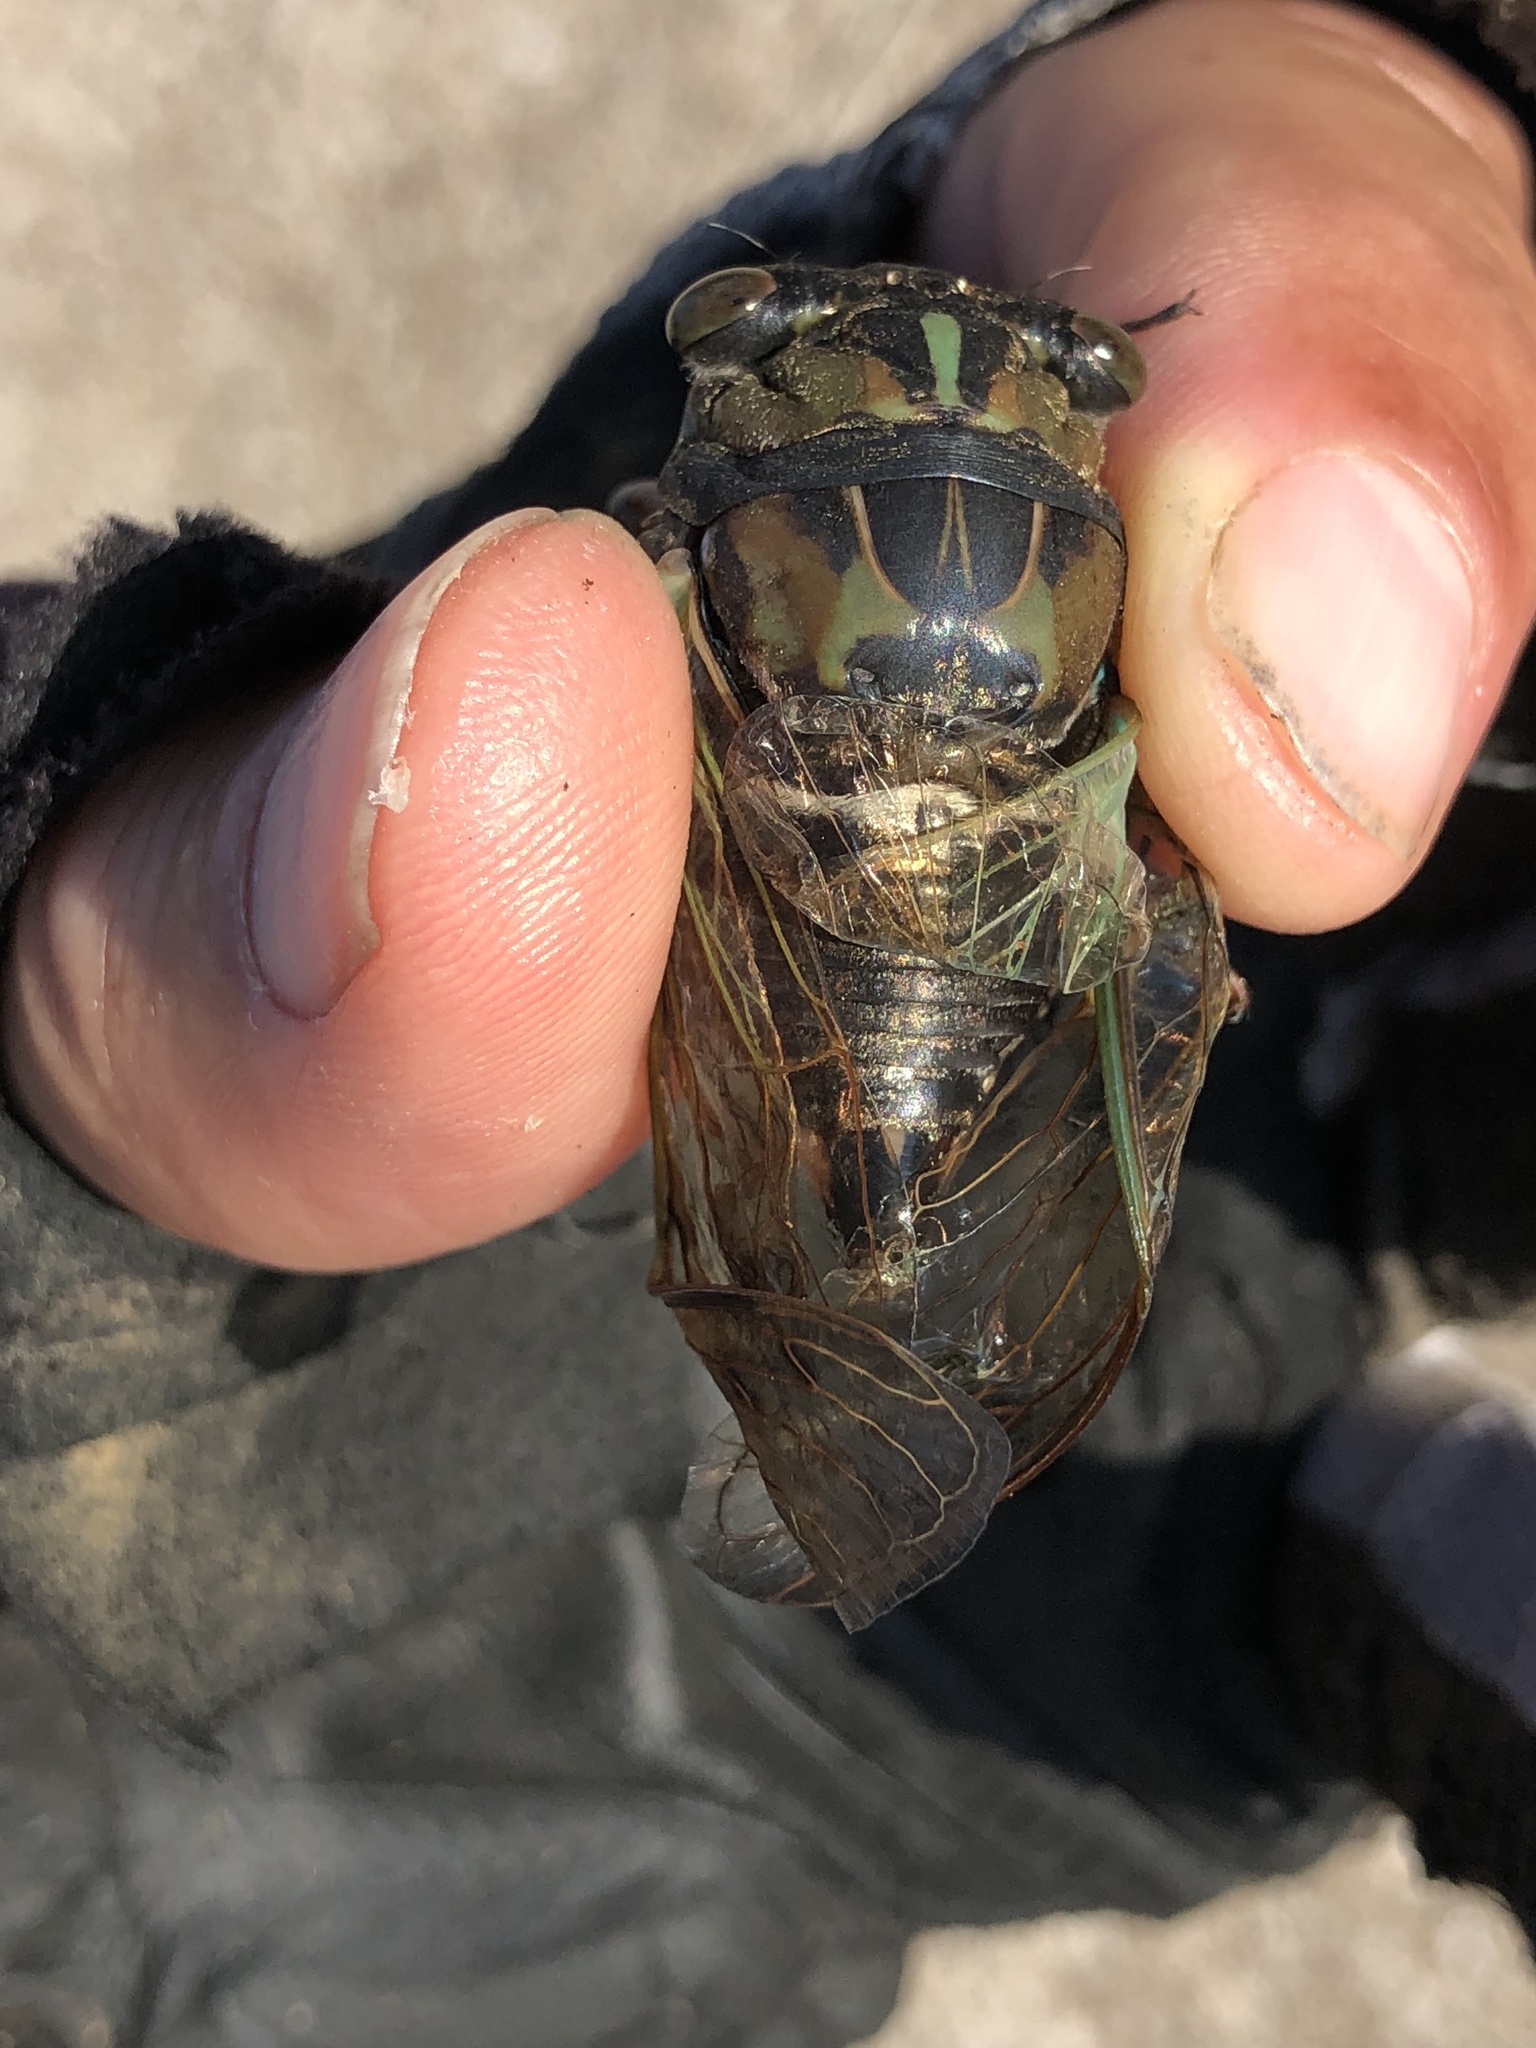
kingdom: Animalia
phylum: Arthropoda
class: Insecta
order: Hemiptera
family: Cicadidae
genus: Neotibicen
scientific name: Neotibicen lyricen
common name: Lyric cicada
